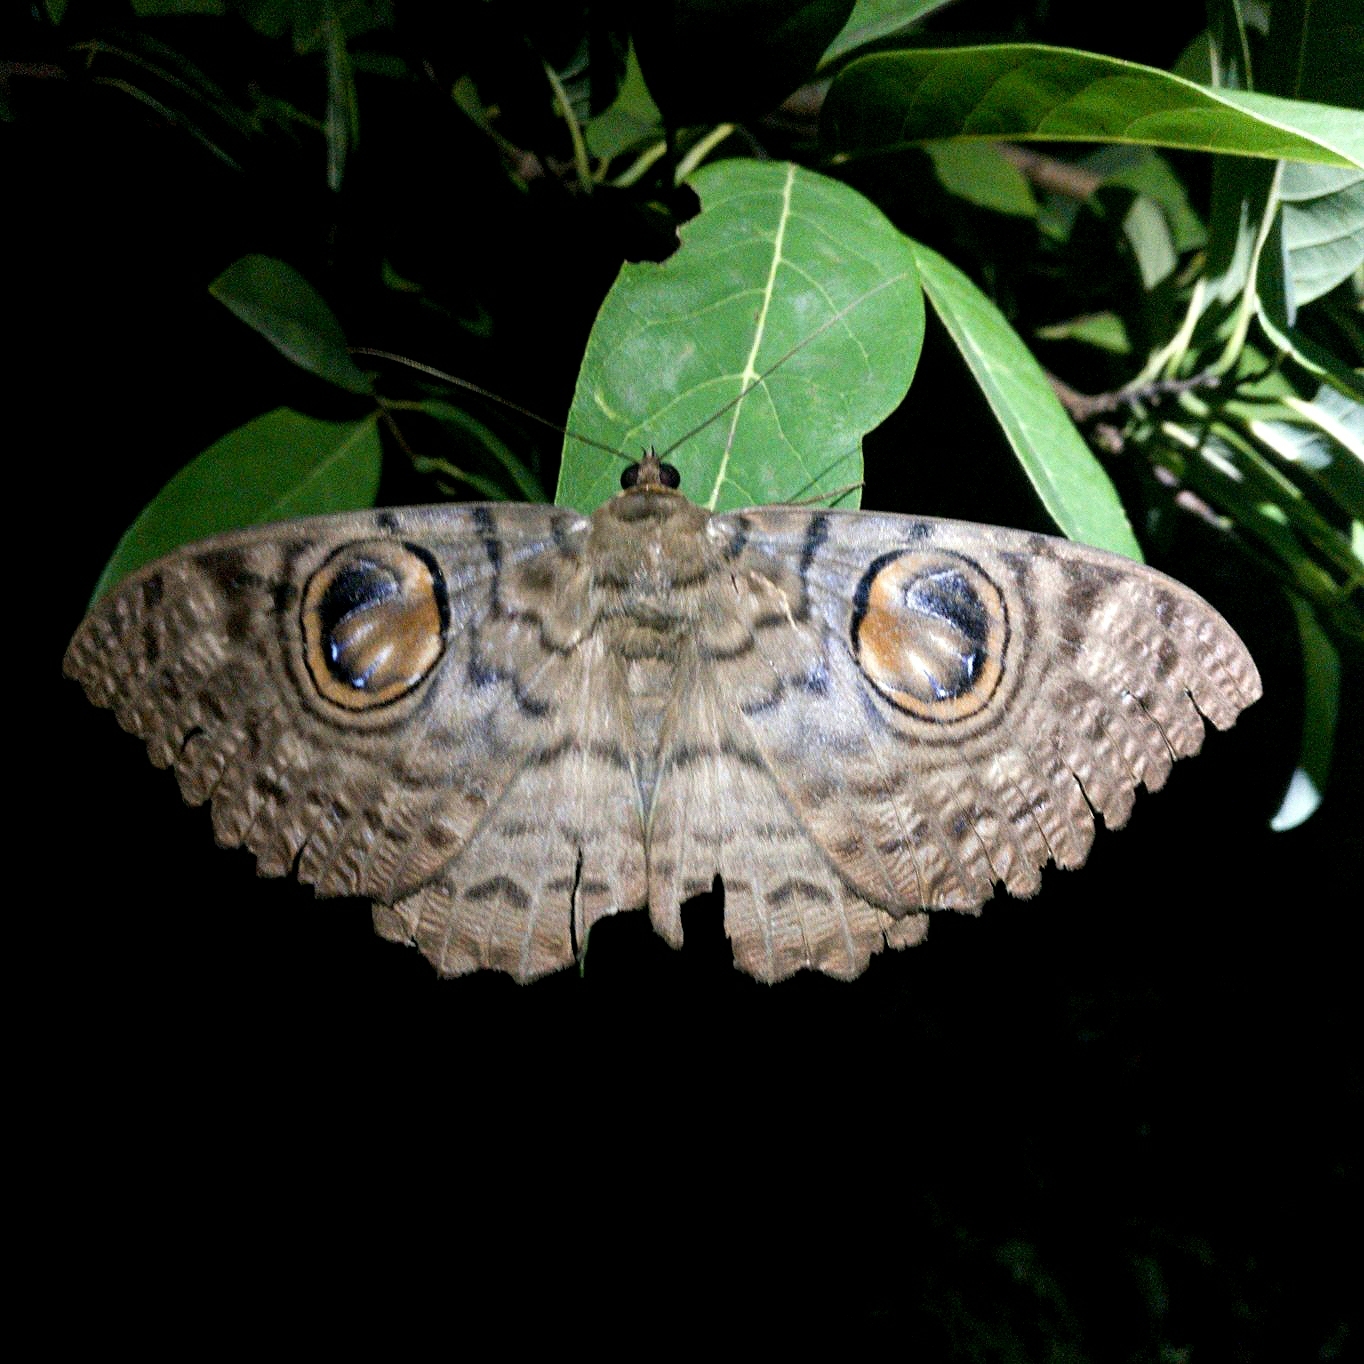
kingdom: Animalia
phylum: Arthropoda
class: Insecta
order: Lepidoptera
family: Erebidae
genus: Erebus
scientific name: Erebus macrops
